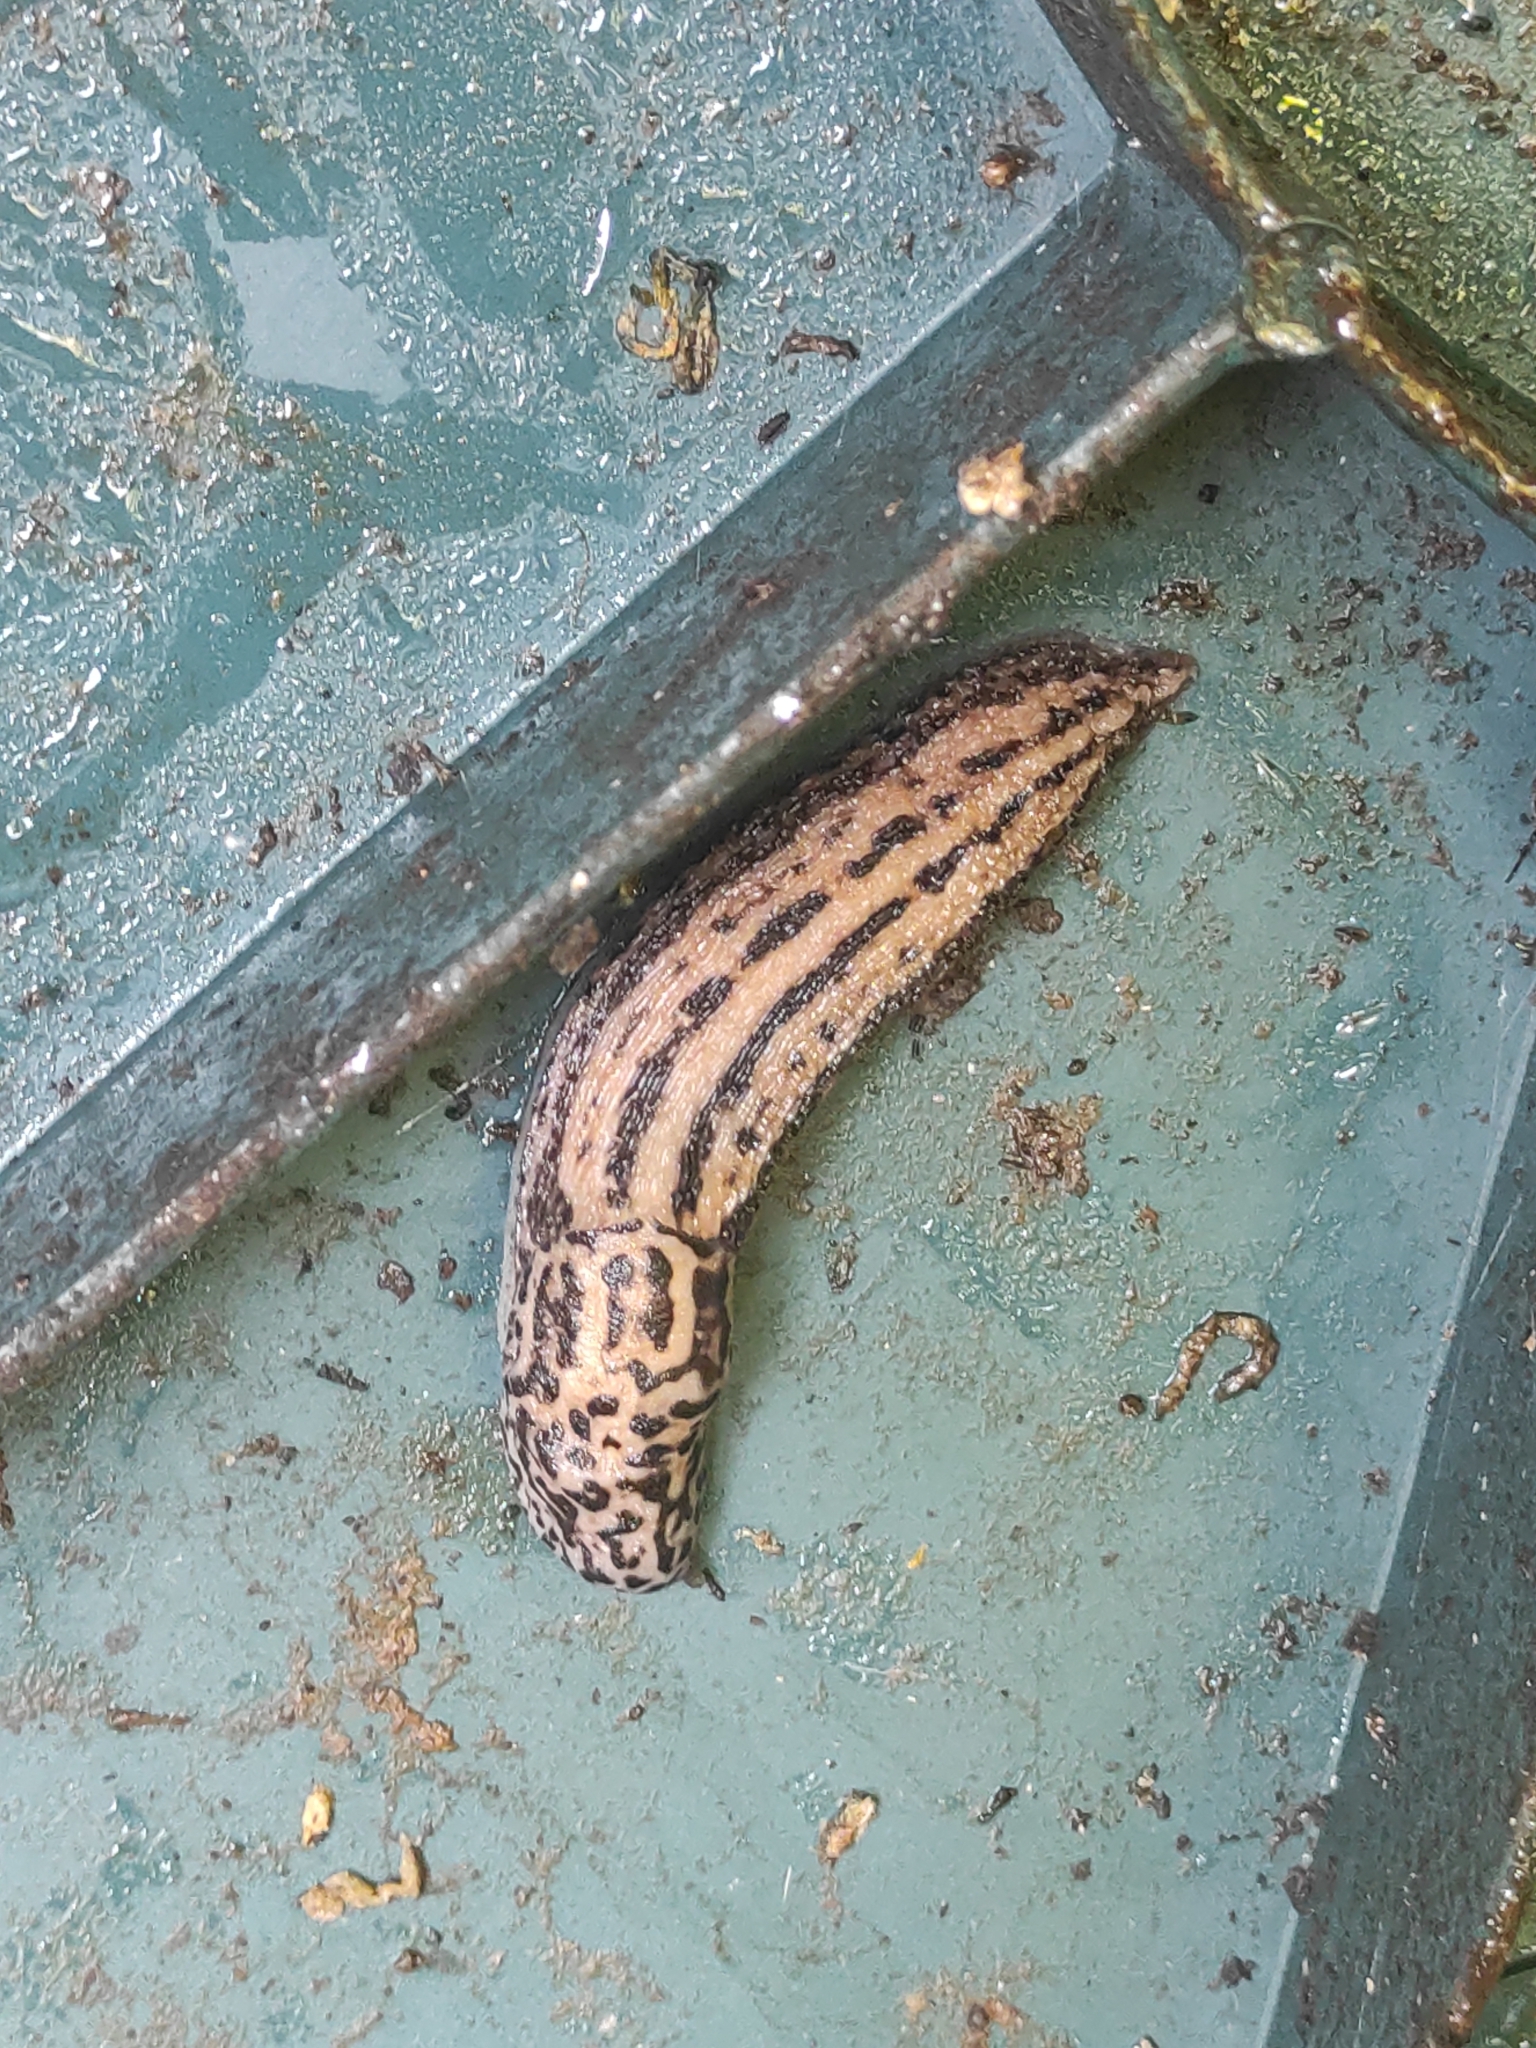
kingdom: Animalia
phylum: Mollusca
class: Gastropoda
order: Stylommatophora
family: Limacidae
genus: Limax
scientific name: Limax maximus
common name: Great grey slug
